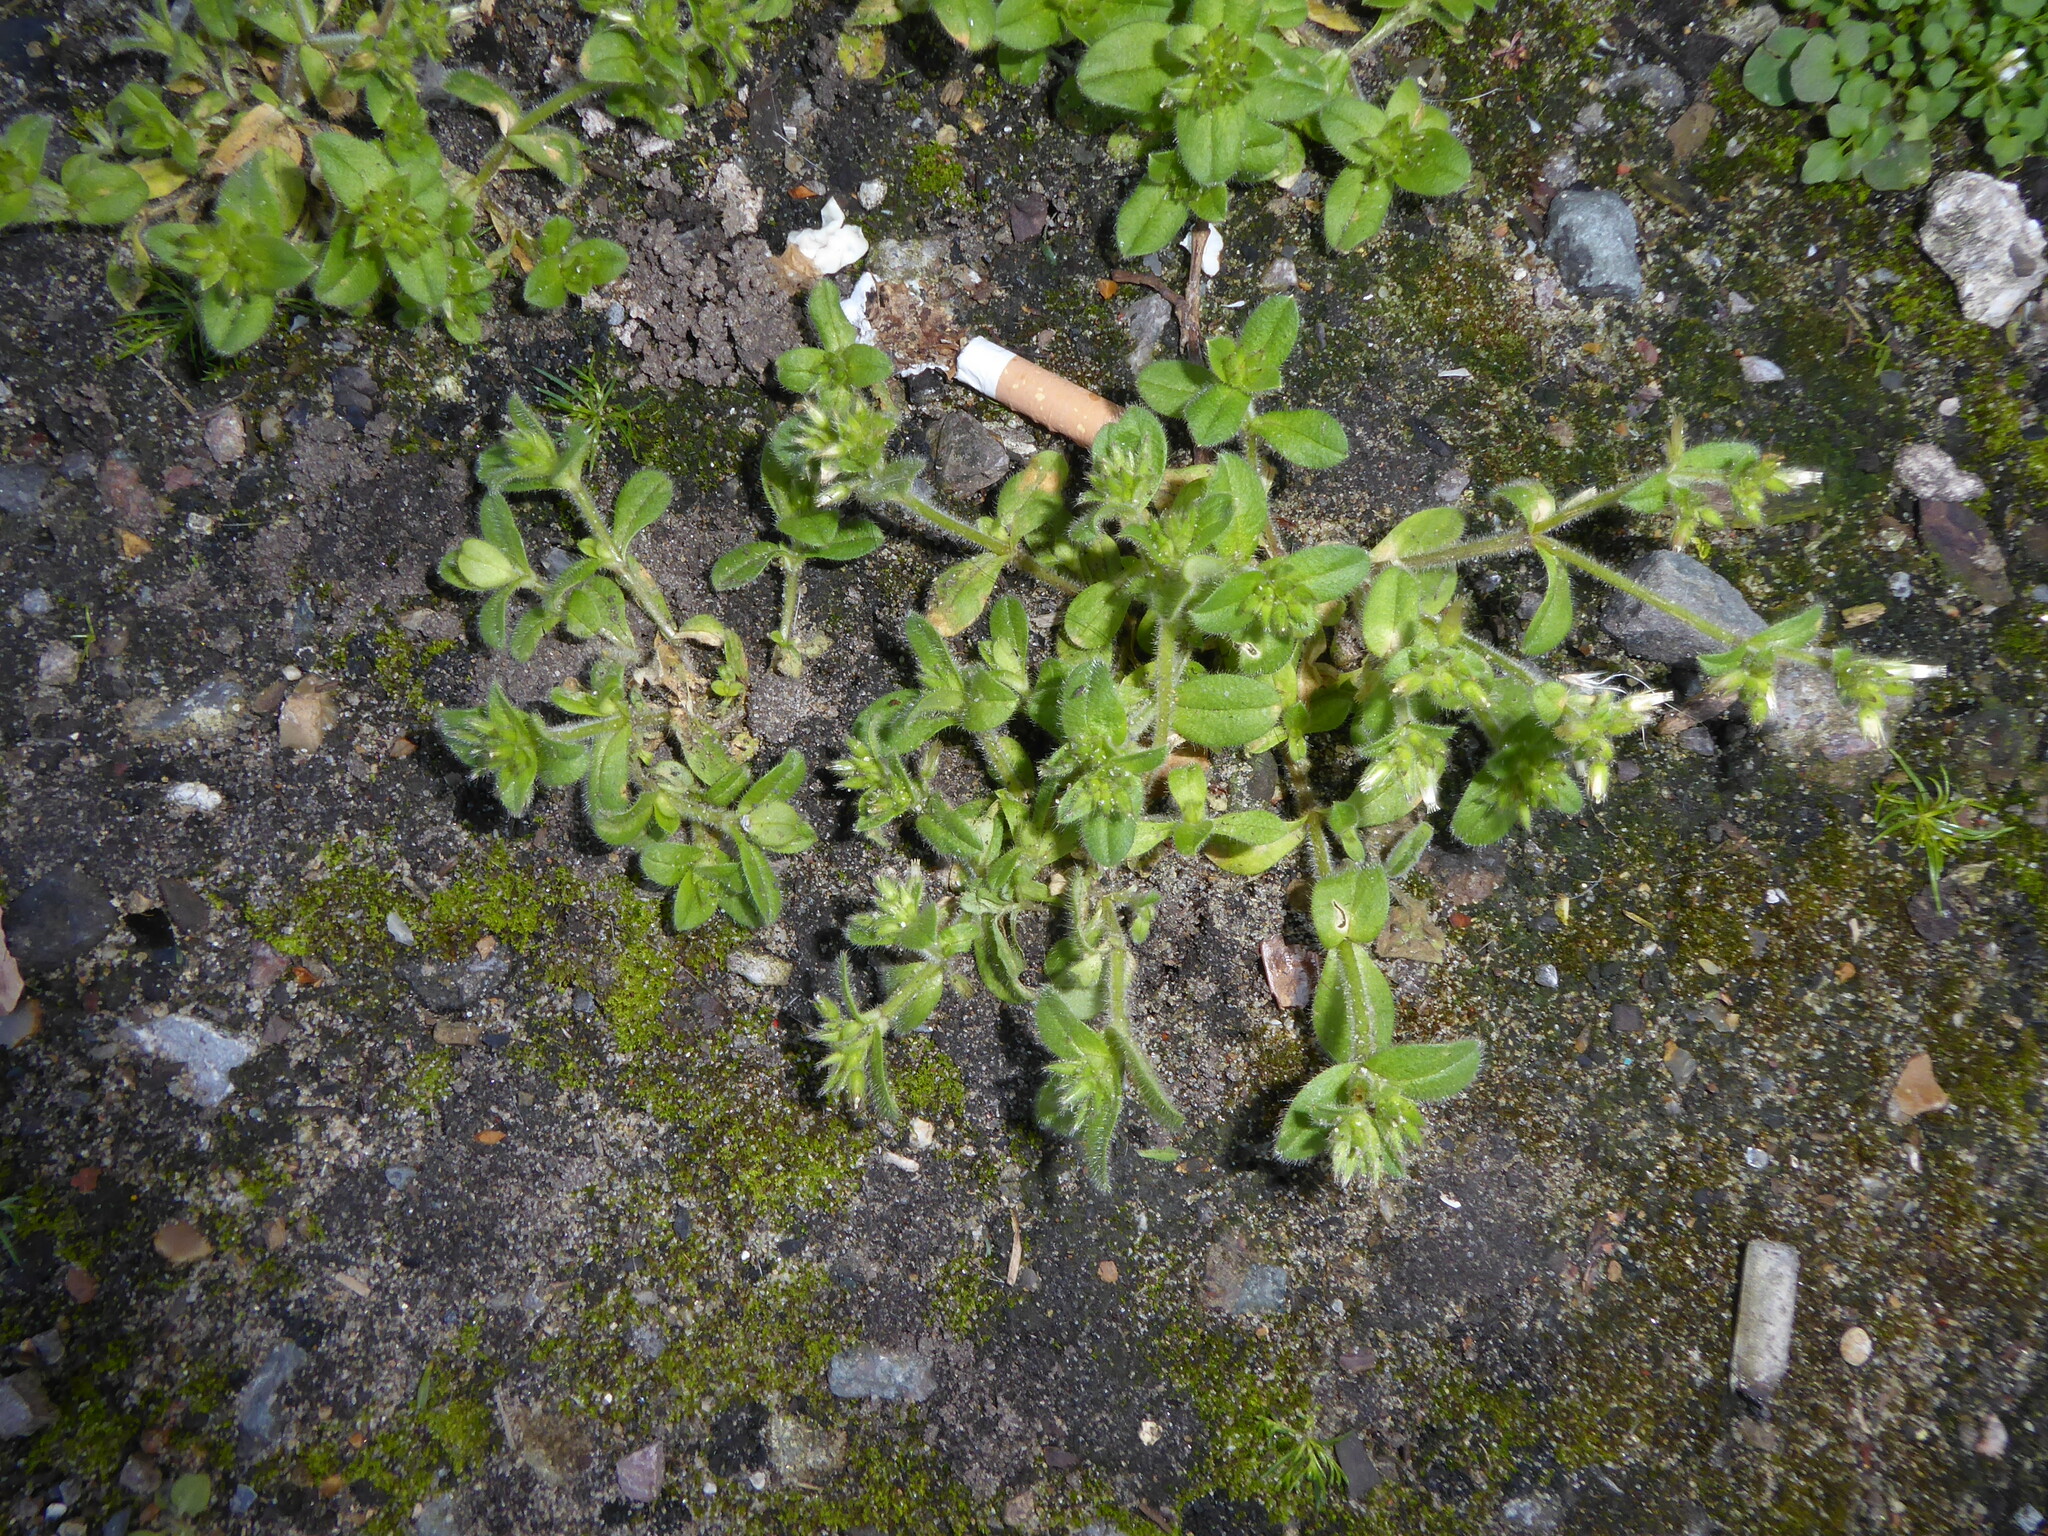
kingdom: Plantae
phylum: Tracheophyta
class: Magnoliopsida
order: Caryophyllales
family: Caryophyllaceae
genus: Cerastium
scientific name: Cerastium glomeratum
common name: Sticky chickweed
